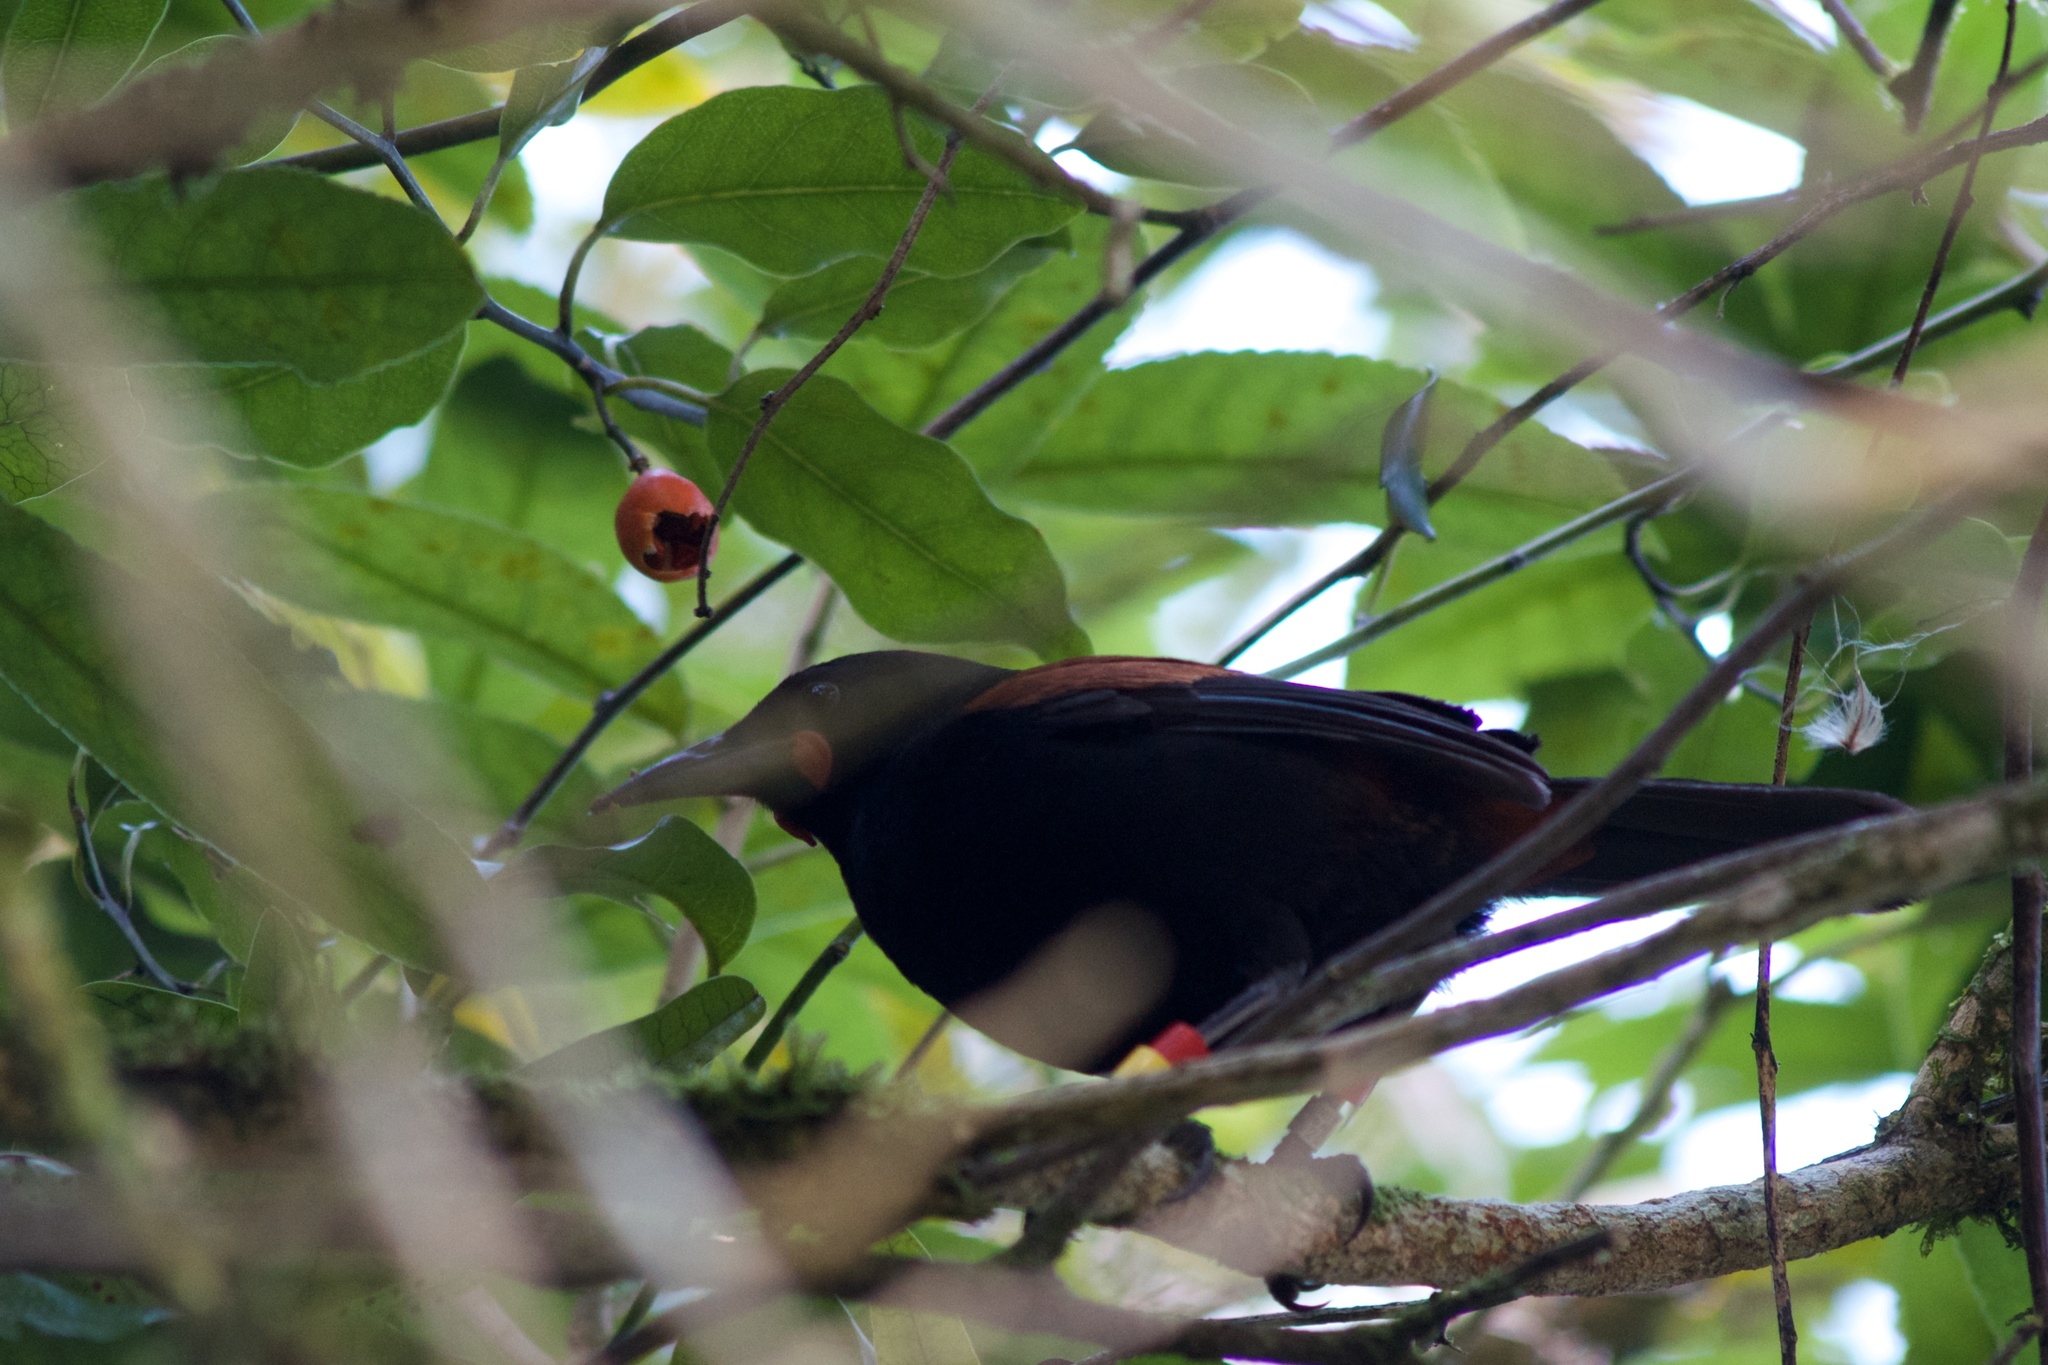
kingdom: Animalia
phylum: Chordata
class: Aves
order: Passeriformes
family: Callaeatidae
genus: Philesturnus
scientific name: Philesturnus carunculatus
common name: South island saddleback
